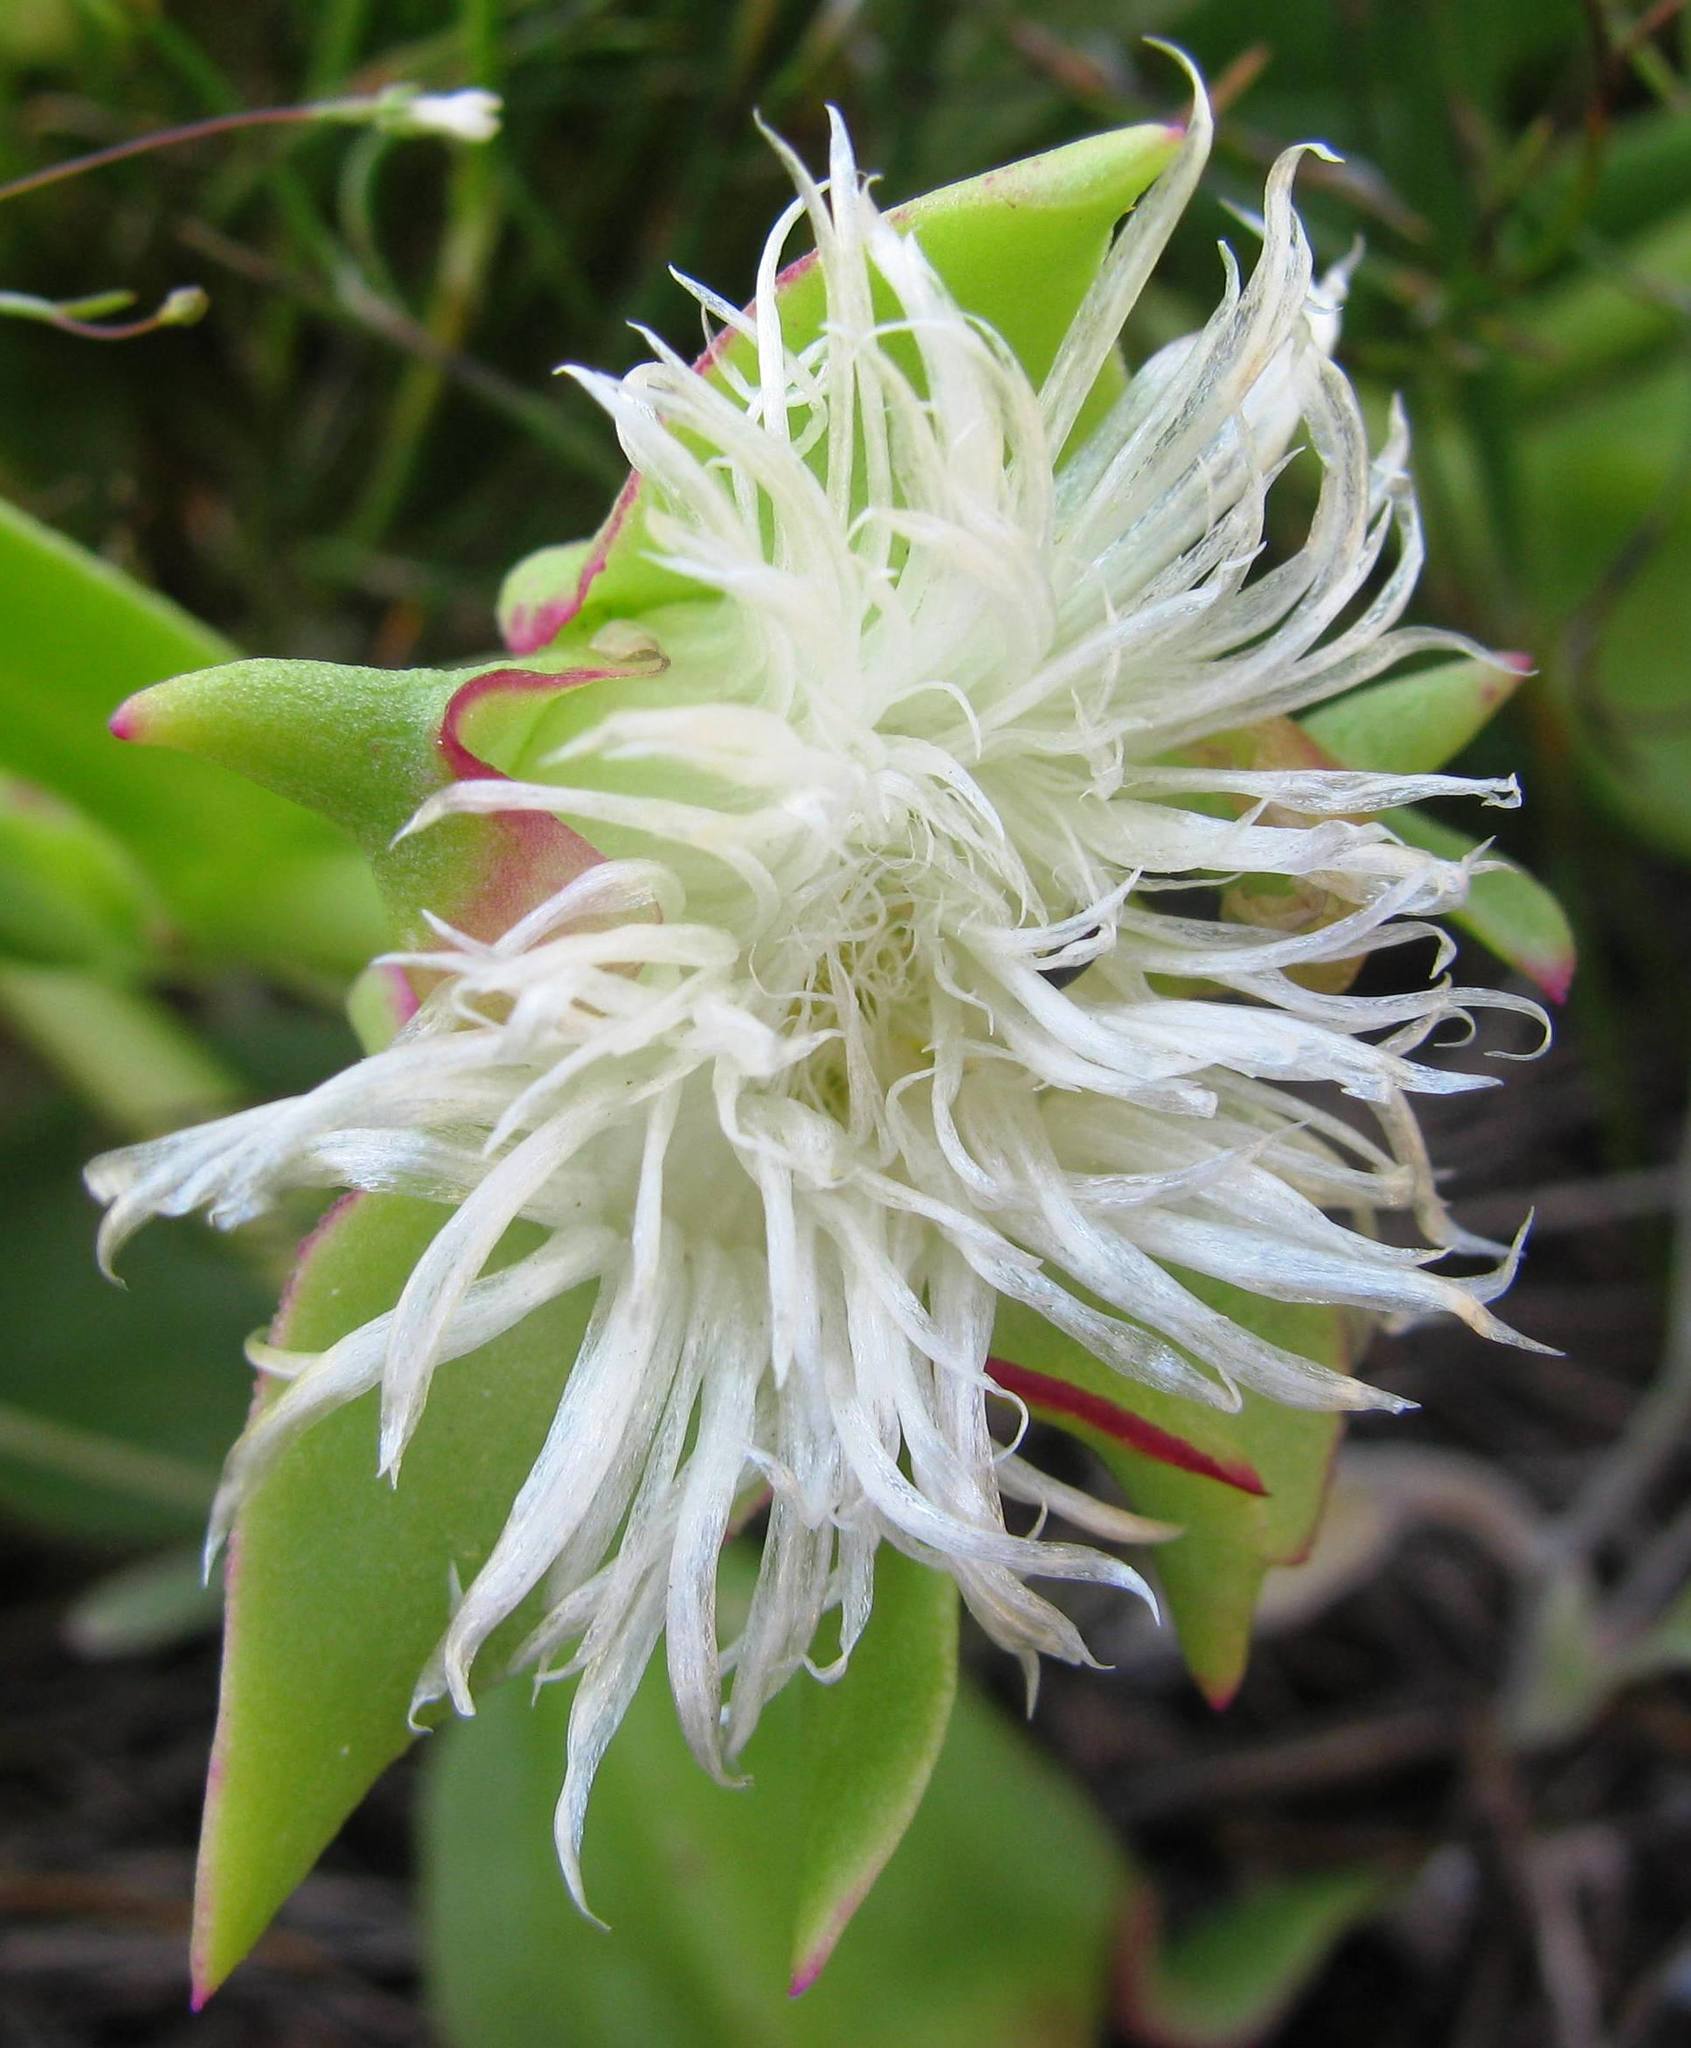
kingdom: Plantae
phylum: Tracheophyta
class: Magnoliopsida
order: Caryophyllales
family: Aizoaceae
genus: Skiatophytum
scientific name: Skiatophytum tripolium
